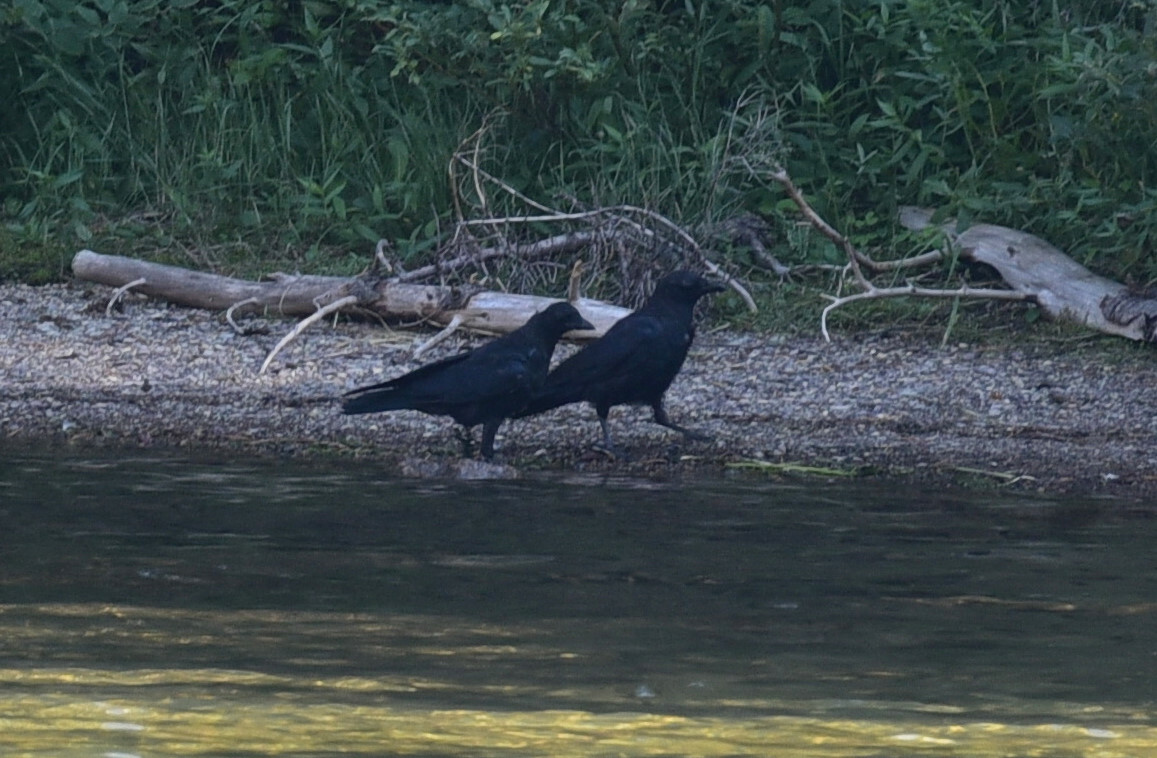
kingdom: Animalia
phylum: Chordata
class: Aves
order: Passeriformes
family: Corvidae
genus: Corvus
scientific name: Corvus brachyrhynchos
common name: American crow
